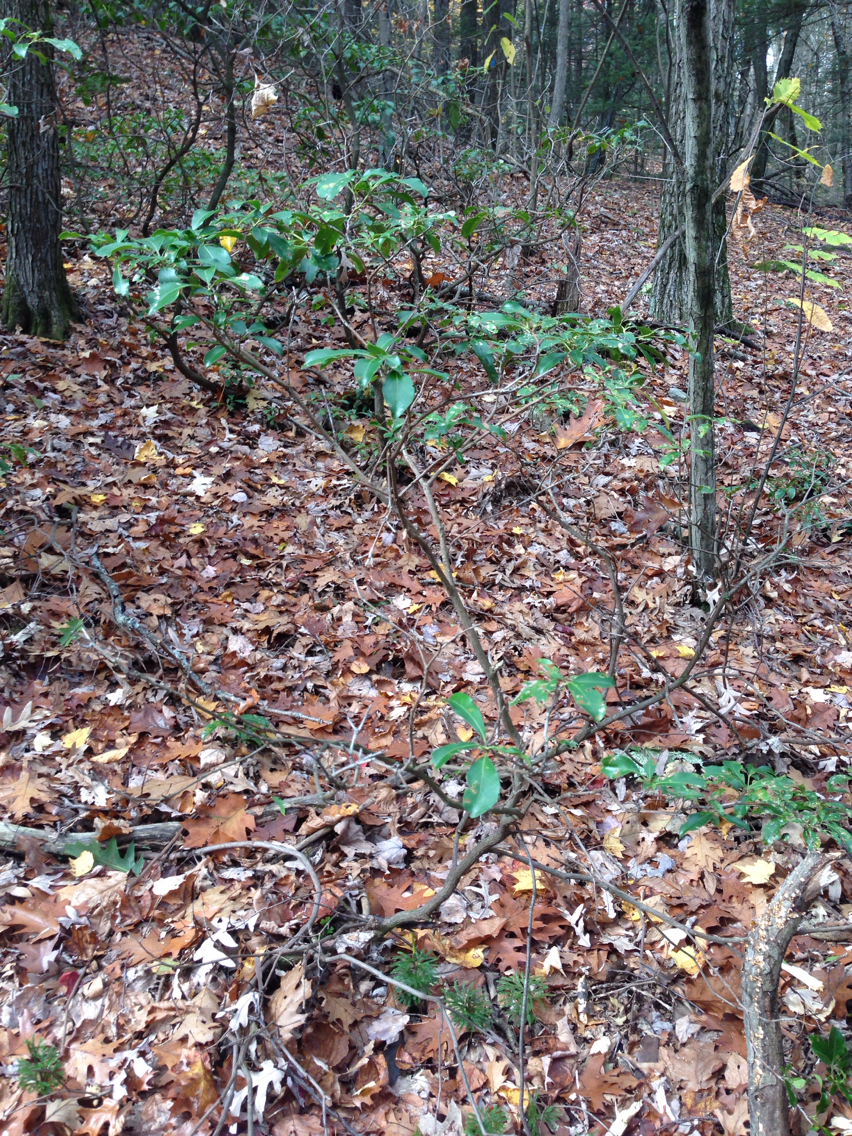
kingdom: Plantae
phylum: Tracheophyta
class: Magnoliopsida
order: Ericales
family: Ericaceae
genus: Kalmia
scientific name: Kalmia latifolia
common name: Mountain-laurel
